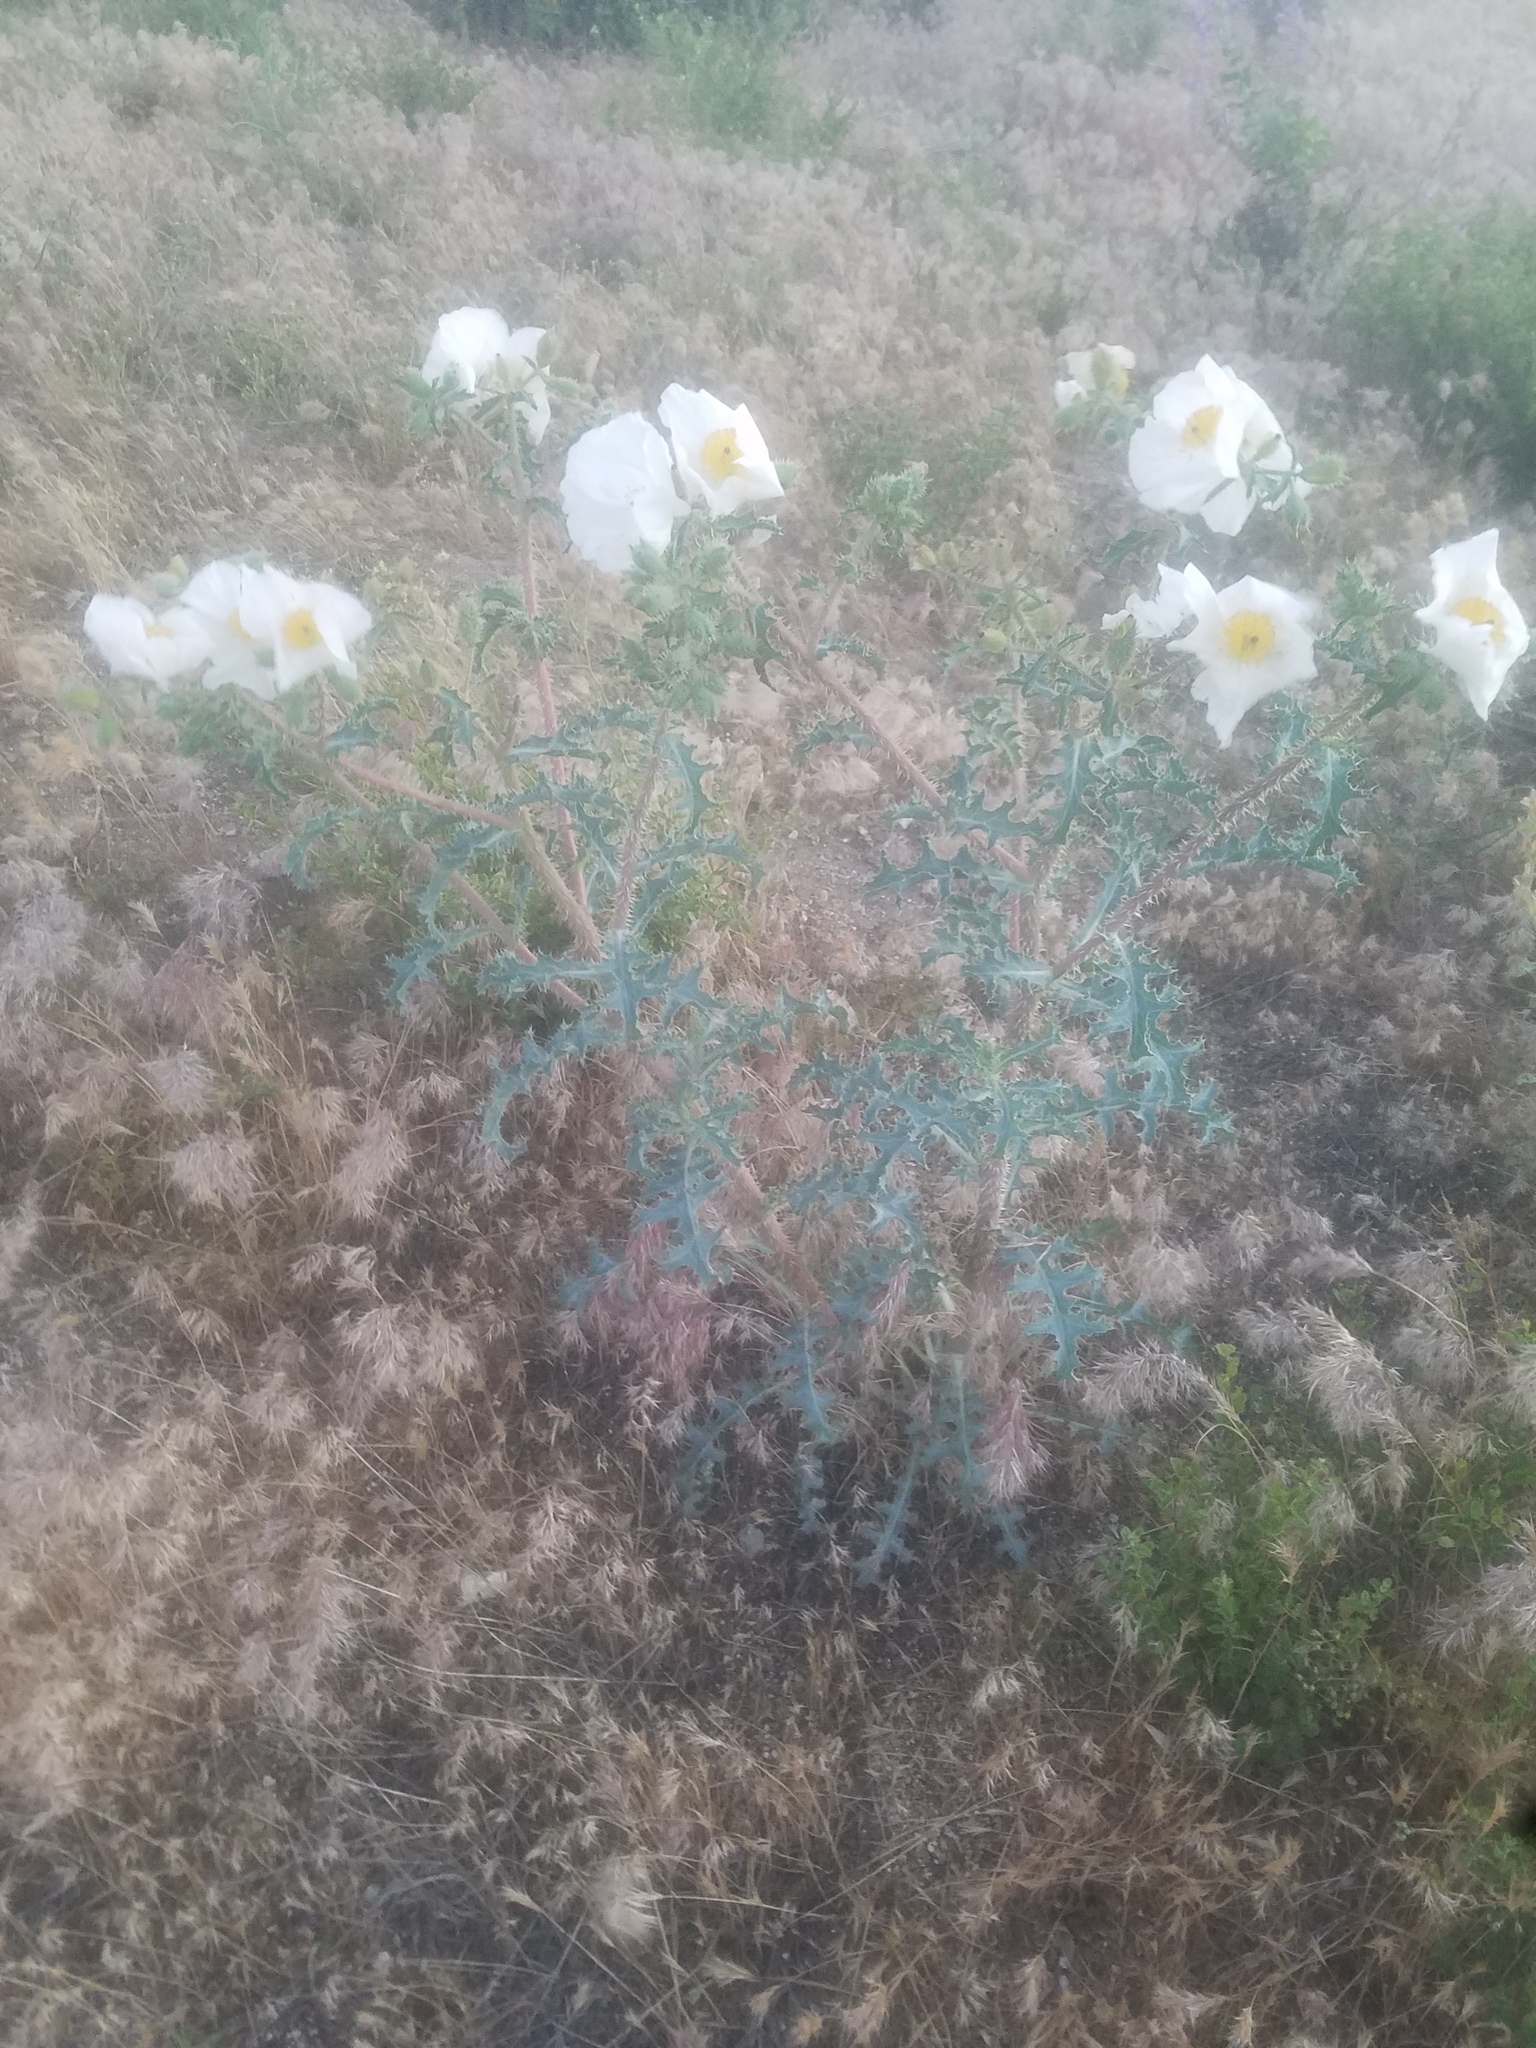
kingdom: Plantae
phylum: Tracheophyta
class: Magnoliopsida
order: Ranunculales
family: Papaveraceae
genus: Argemone
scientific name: Argemone munita
